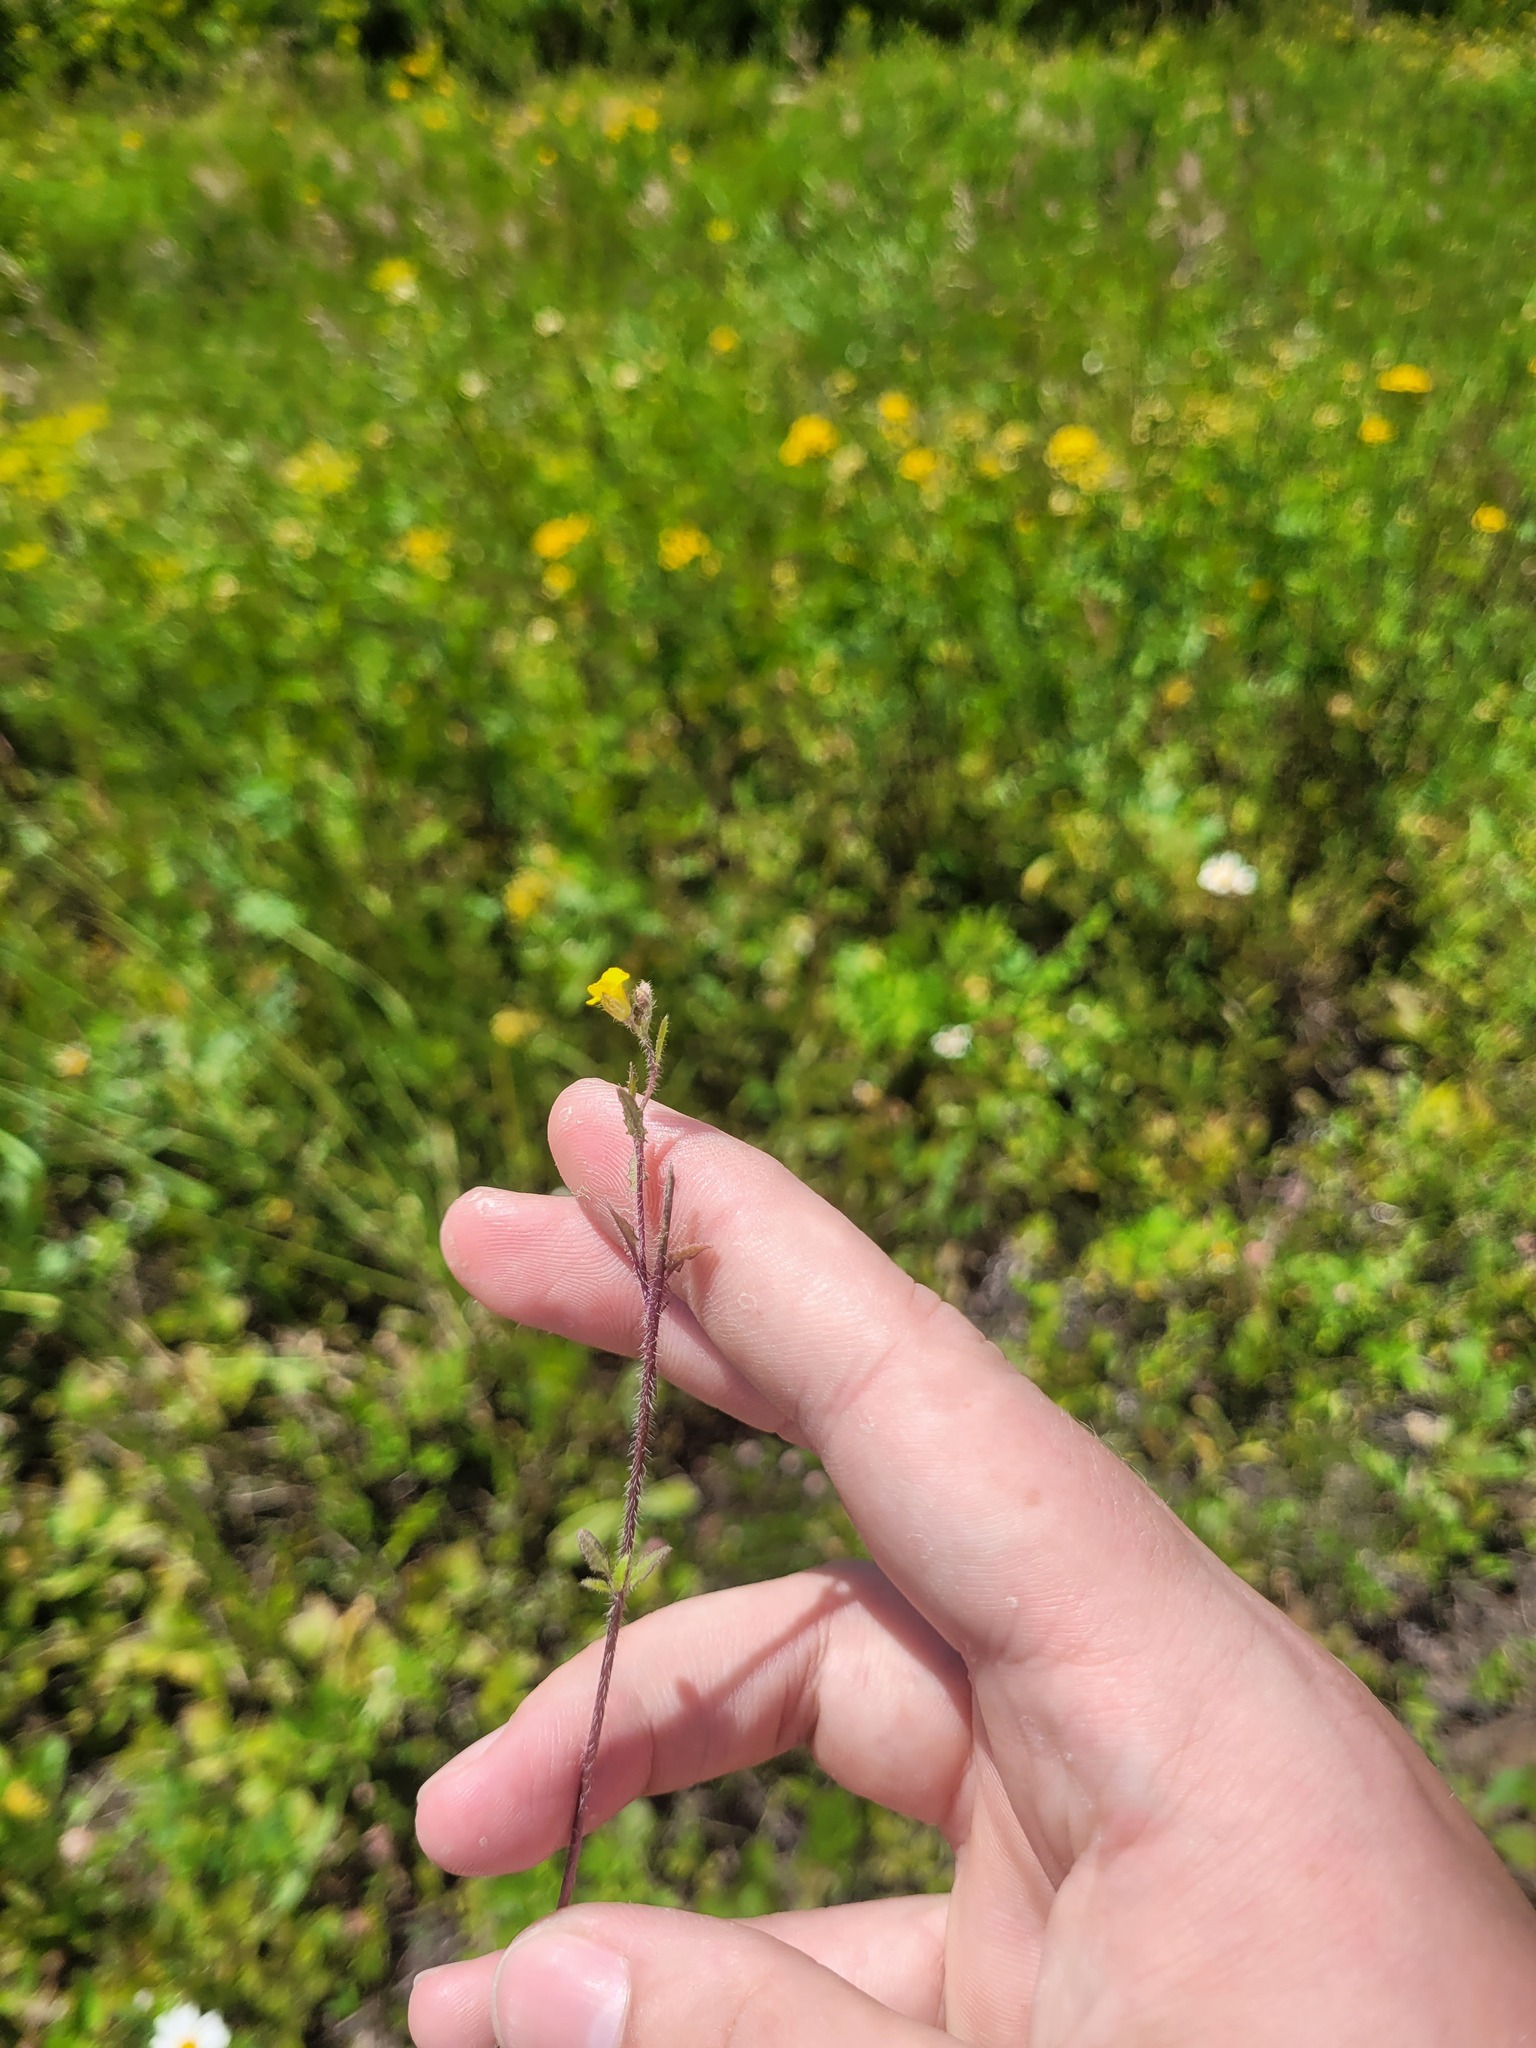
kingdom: Plantae
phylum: Tracheophyta
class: Magnoliopsida
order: Brassicales
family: Brassicaceae
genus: Sisymbrium
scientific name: Sisymbrium loeselii
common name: False london-rocket
